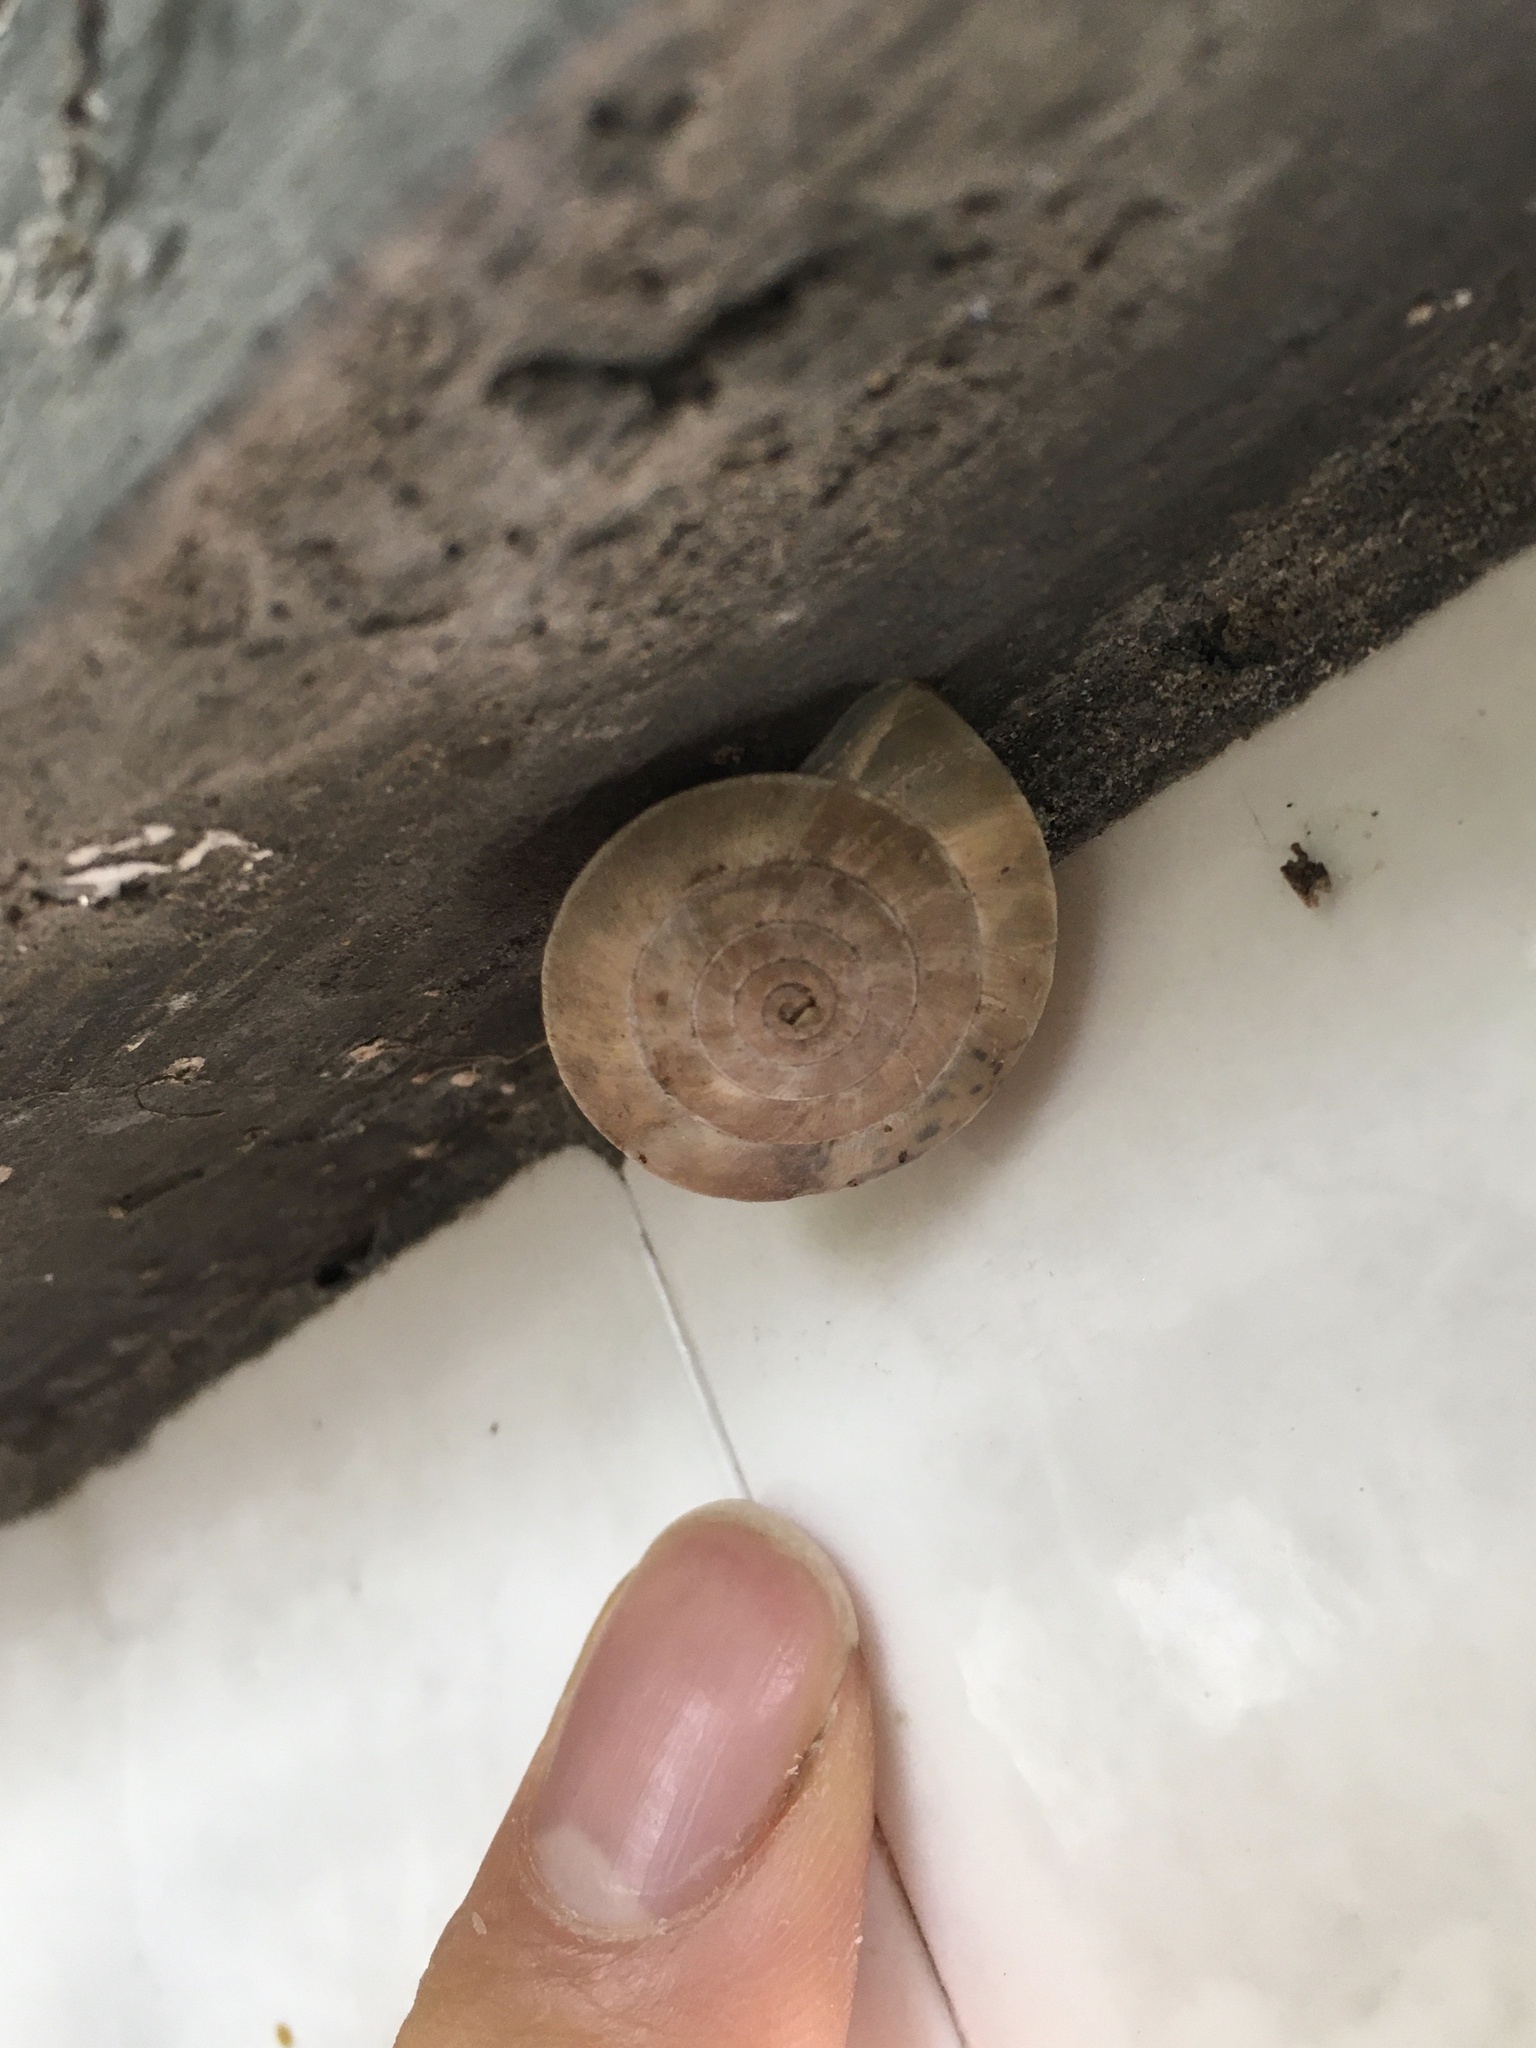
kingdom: Animalia
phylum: Mollusca
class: Gastropoda
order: Stylommatophora
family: Camaenidae
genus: Laeocathaica
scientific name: Laeocathaica carinifera
